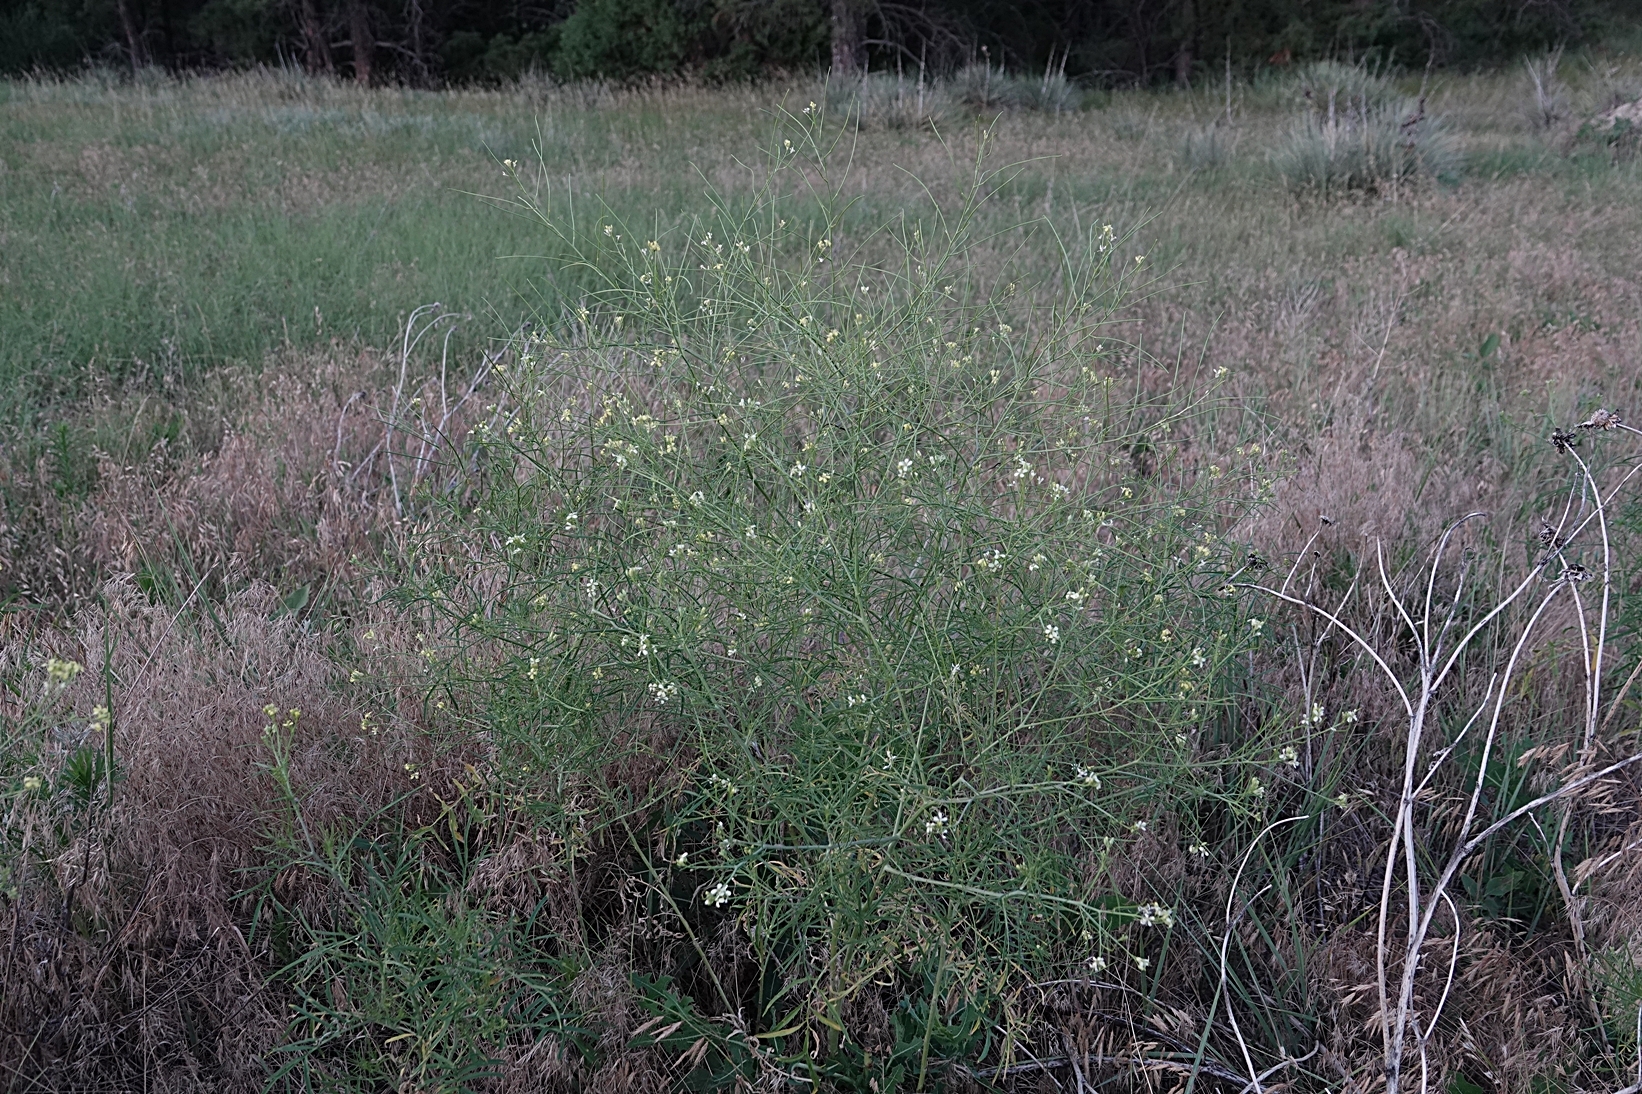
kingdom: Plantae
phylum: Tracheophyta
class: Magnoliopsida
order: Brassicales
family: Brassicaceae
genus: Sisymbrium
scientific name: Sisymbrium altissimum
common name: Tall rocket
